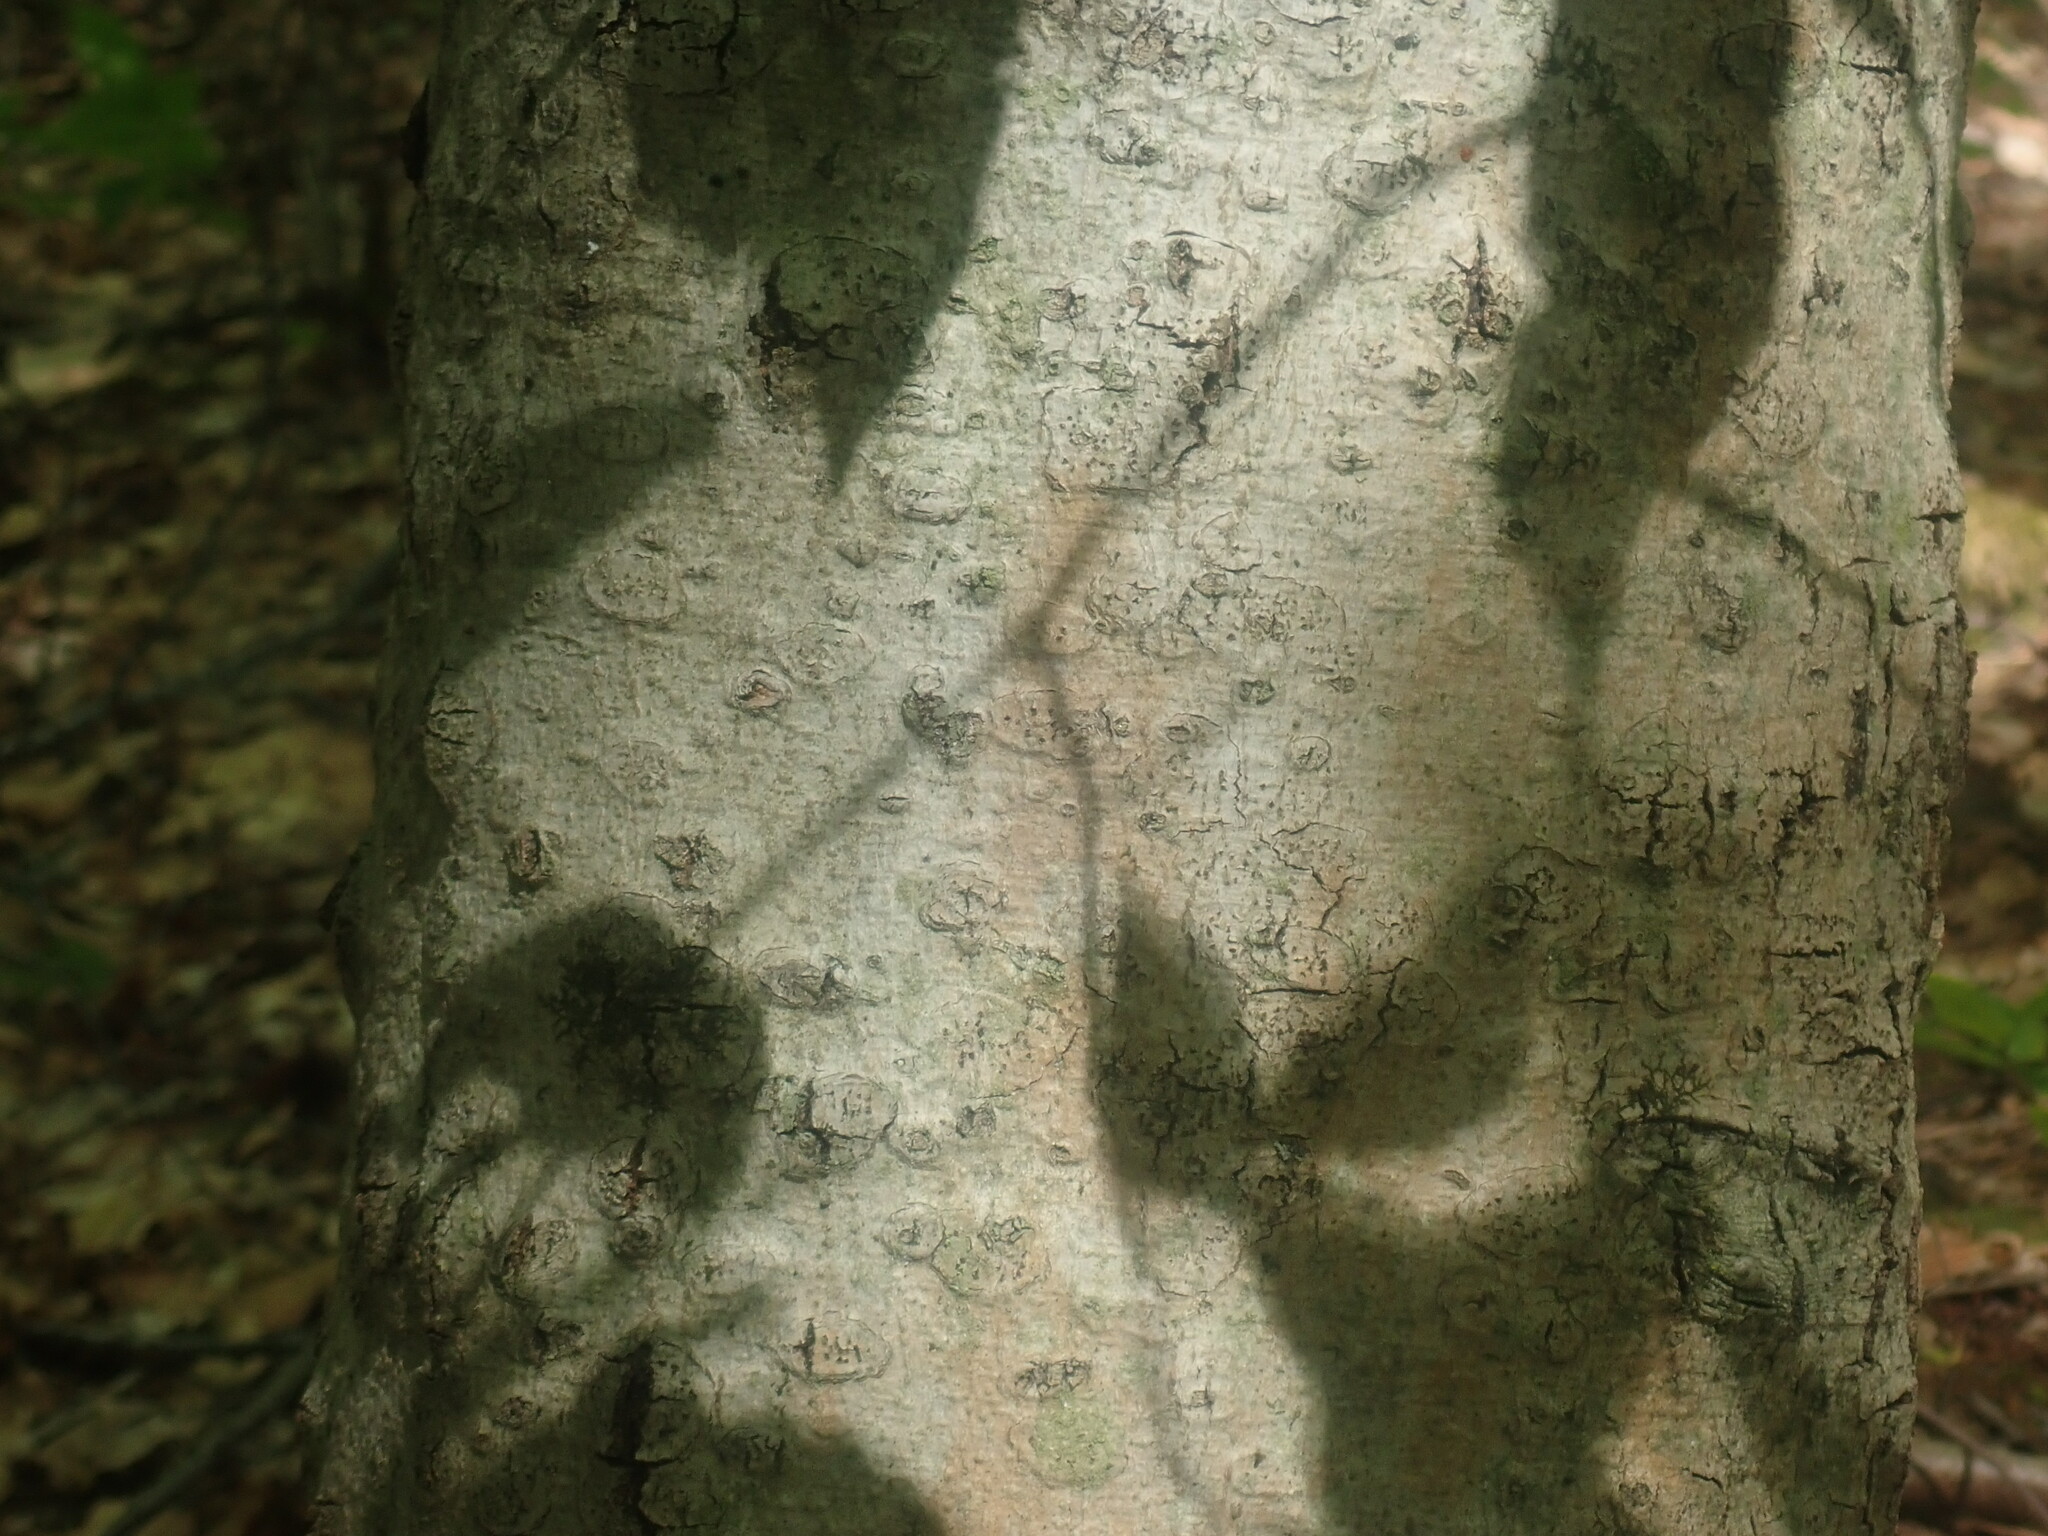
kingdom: Fungi
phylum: Ascomycota
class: Sordariomycetes
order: Hypocreales
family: Nectriaceae
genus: Neonectria
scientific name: Neonectria faginata
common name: Beech bark canker
